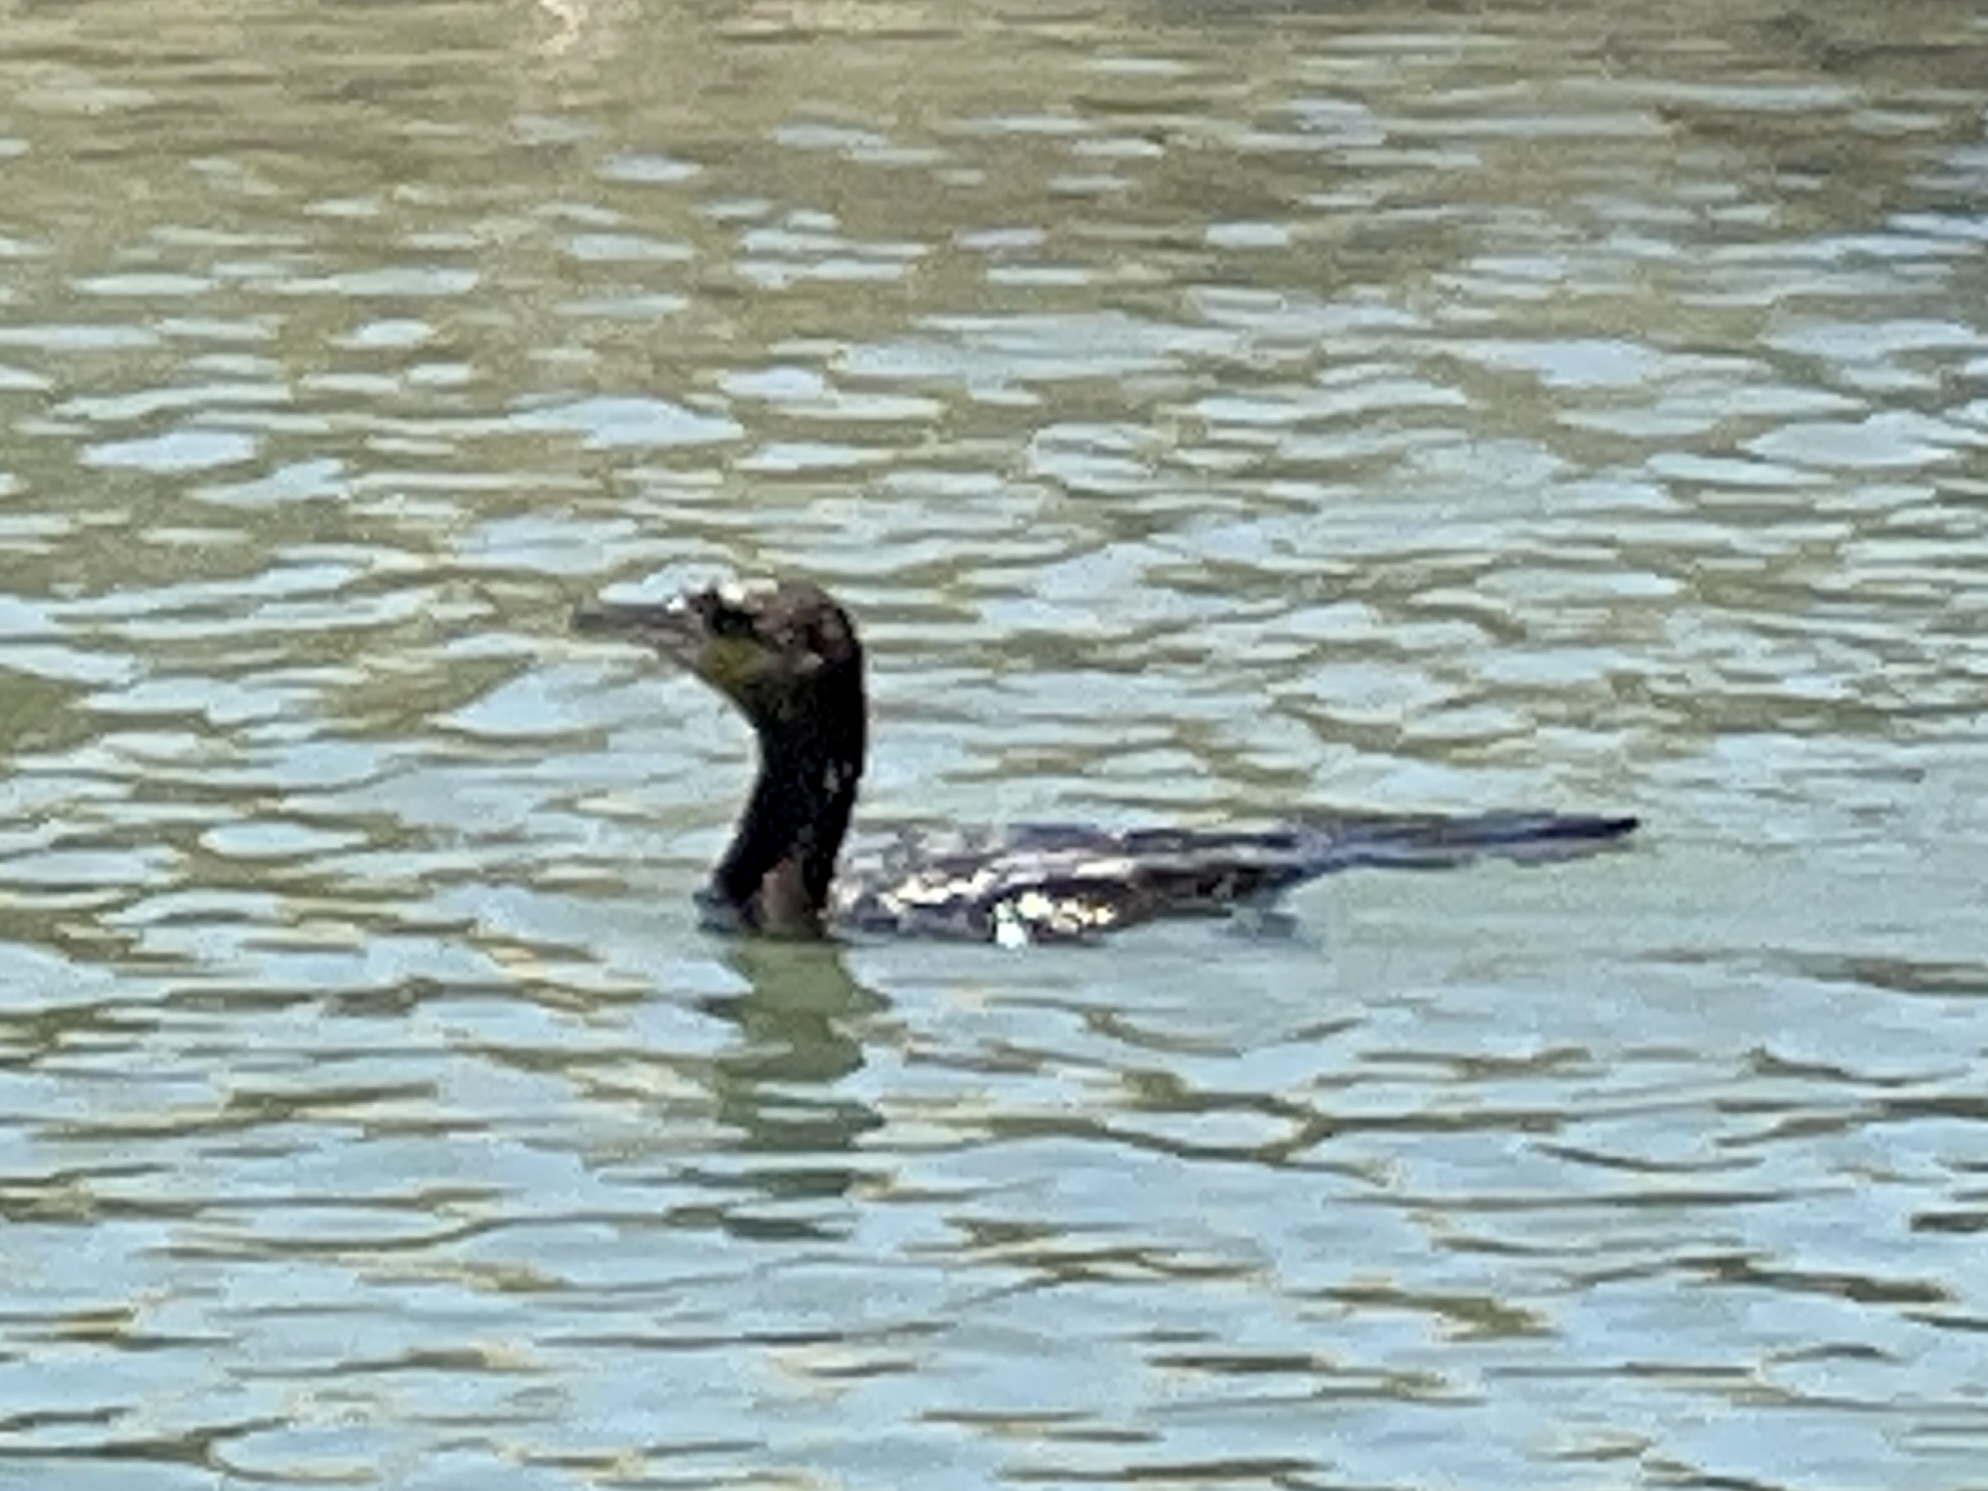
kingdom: Animalia
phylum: Chordata
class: Aves
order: Suliformes
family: Phalacrocoracidae
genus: Phalacrocorax
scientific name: Phalacrocorax brasilianus
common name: Neotropic cormorant
